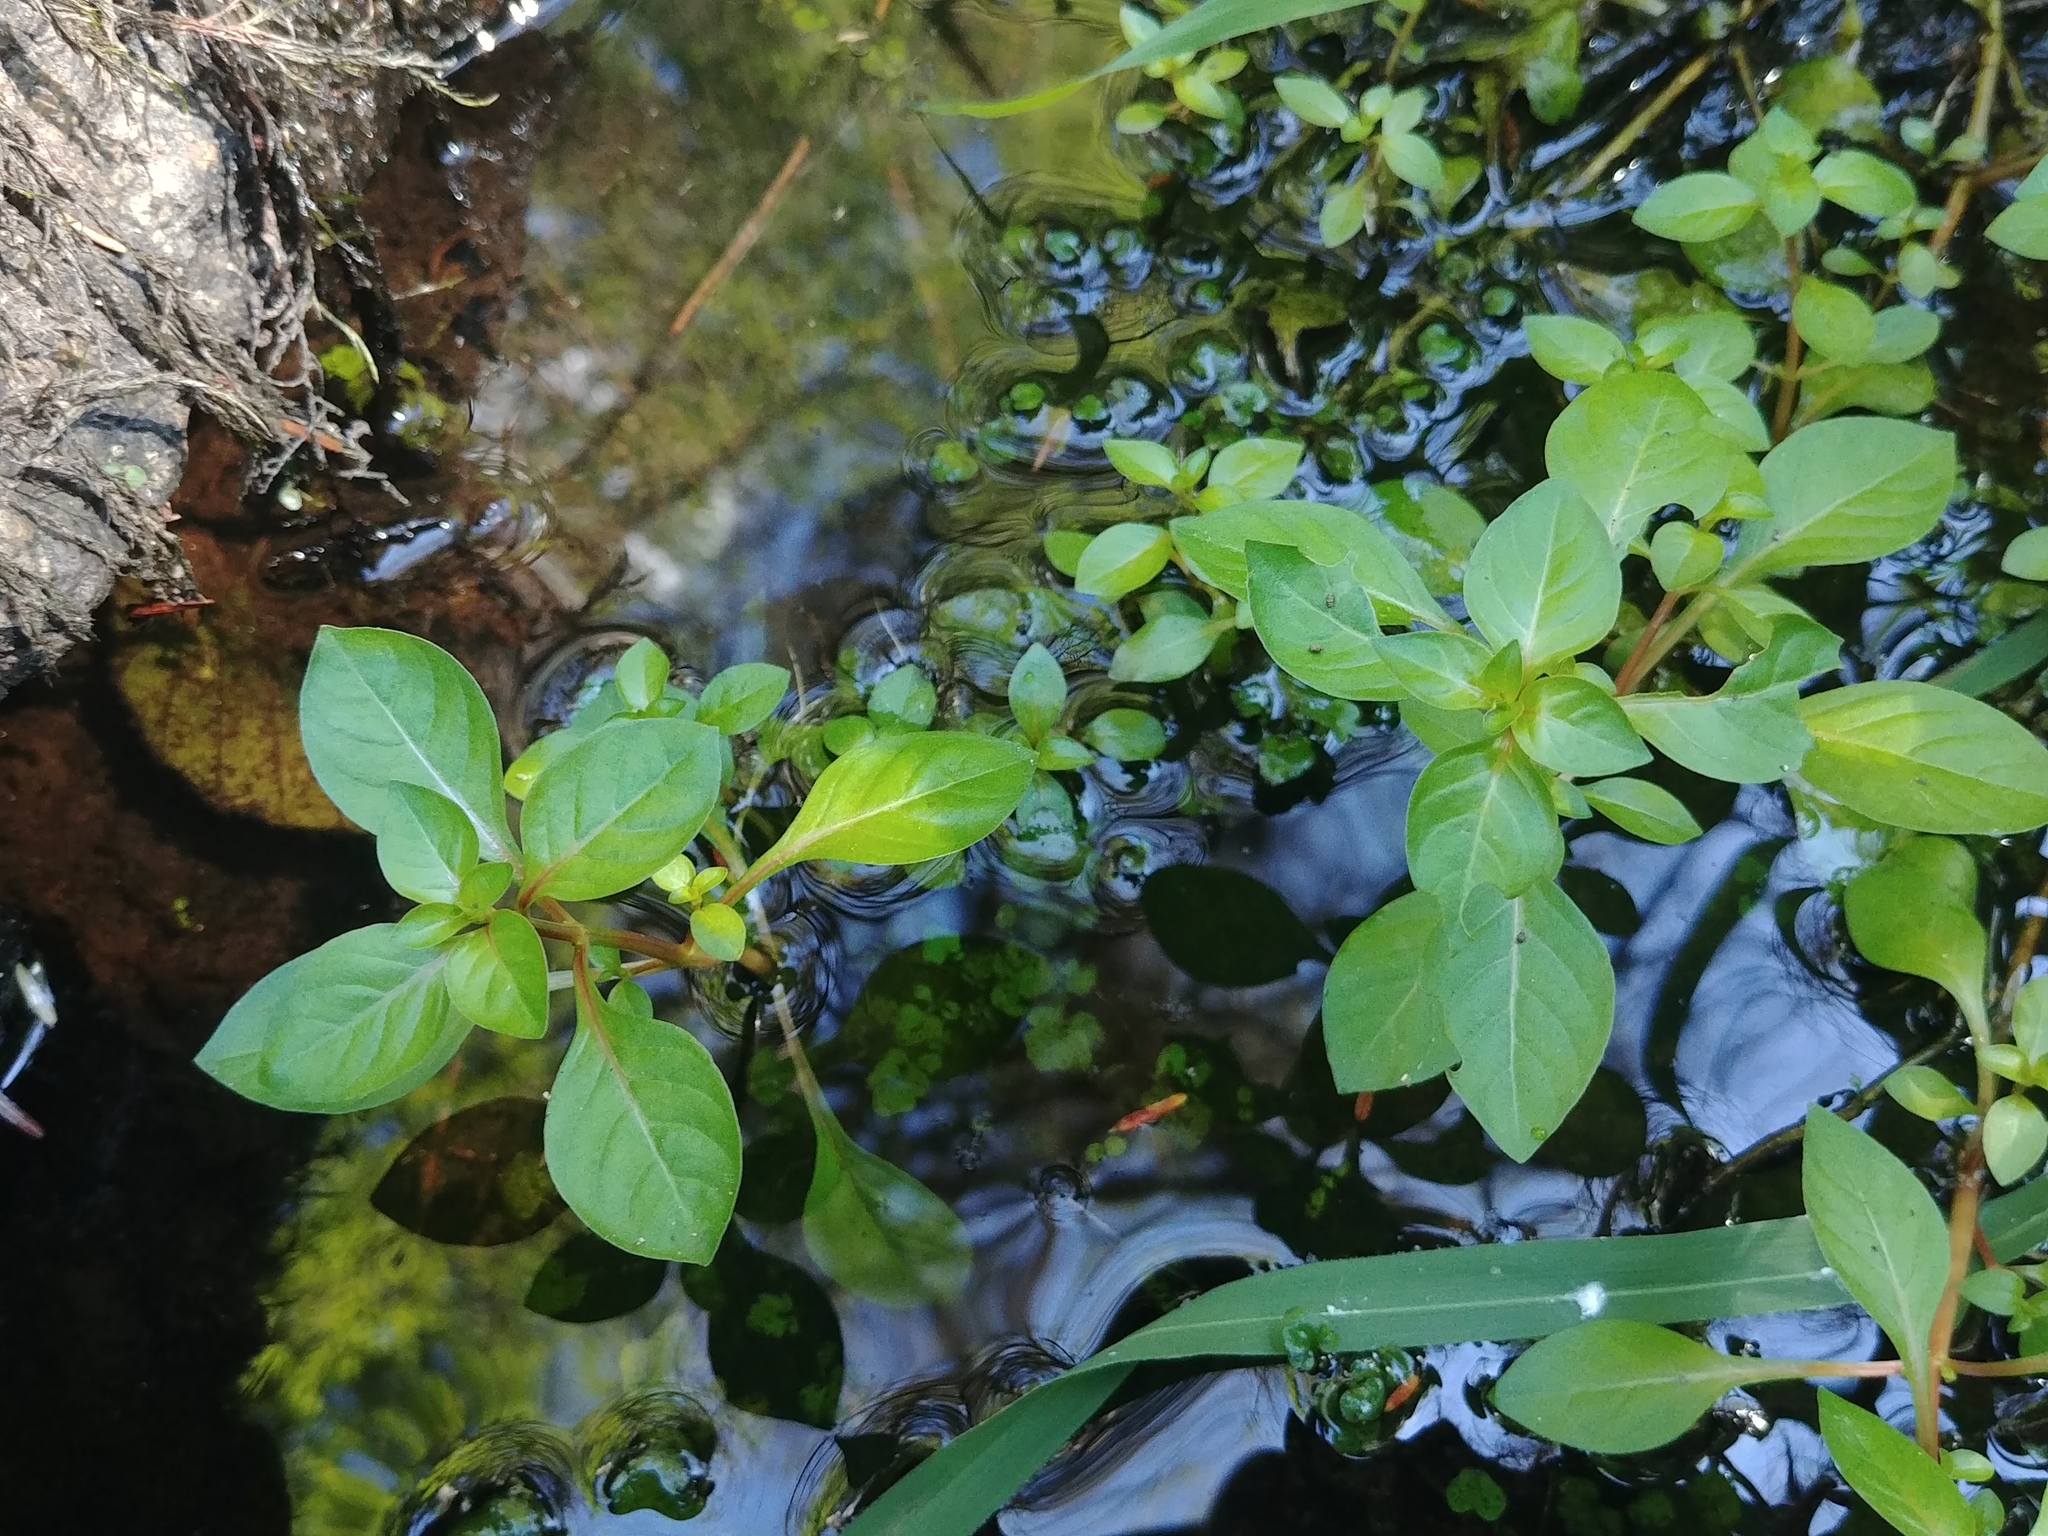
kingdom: Plantae
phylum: Tracheophyta
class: Magnoliopsida
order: Myrtales
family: Onagraceae
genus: Ludwigia
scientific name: Ludwigia palustris
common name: Hampshire-purslane
